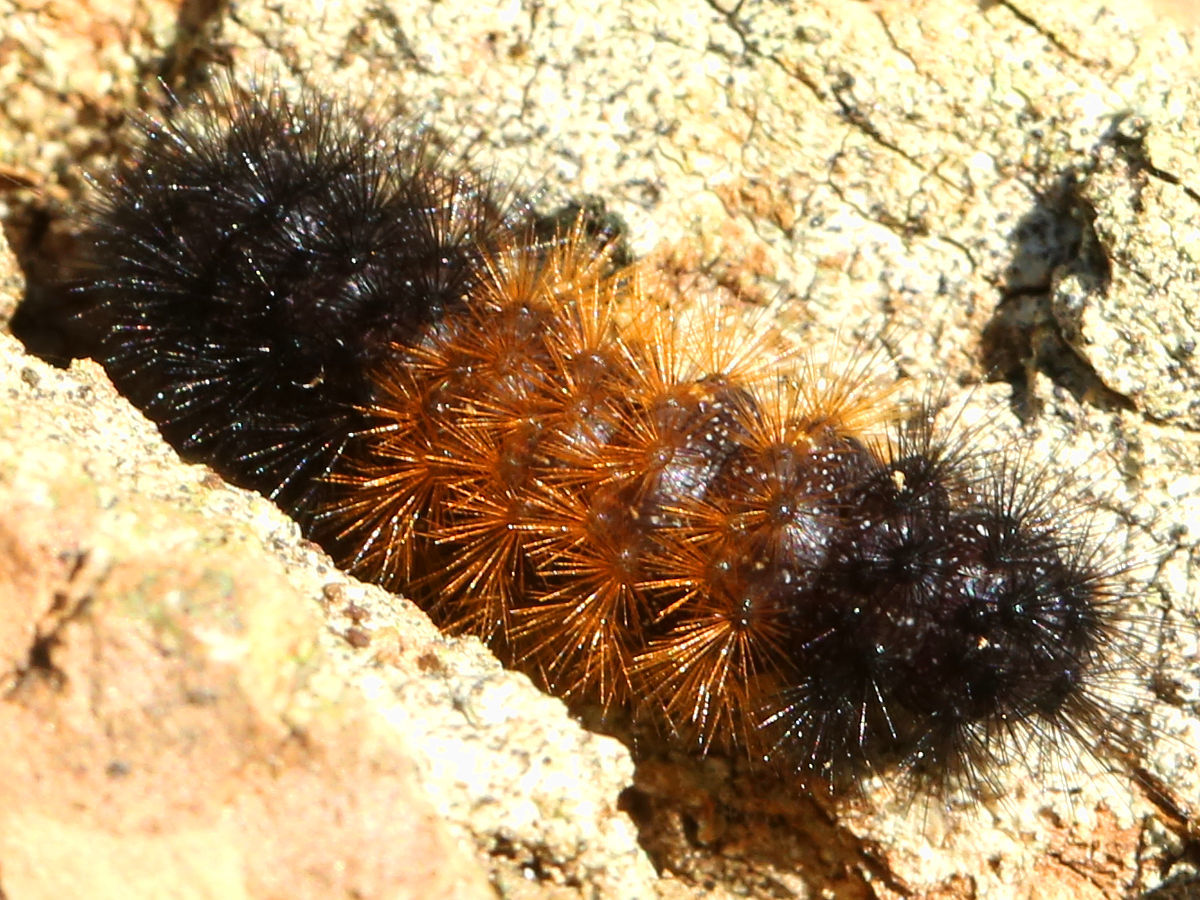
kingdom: Animalia
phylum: Arthropoda
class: Insecta
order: Lepidoptera
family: Erebidae
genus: Pyrrharctia
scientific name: Pyrrharctia isabella
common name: Isabella tiger moth
